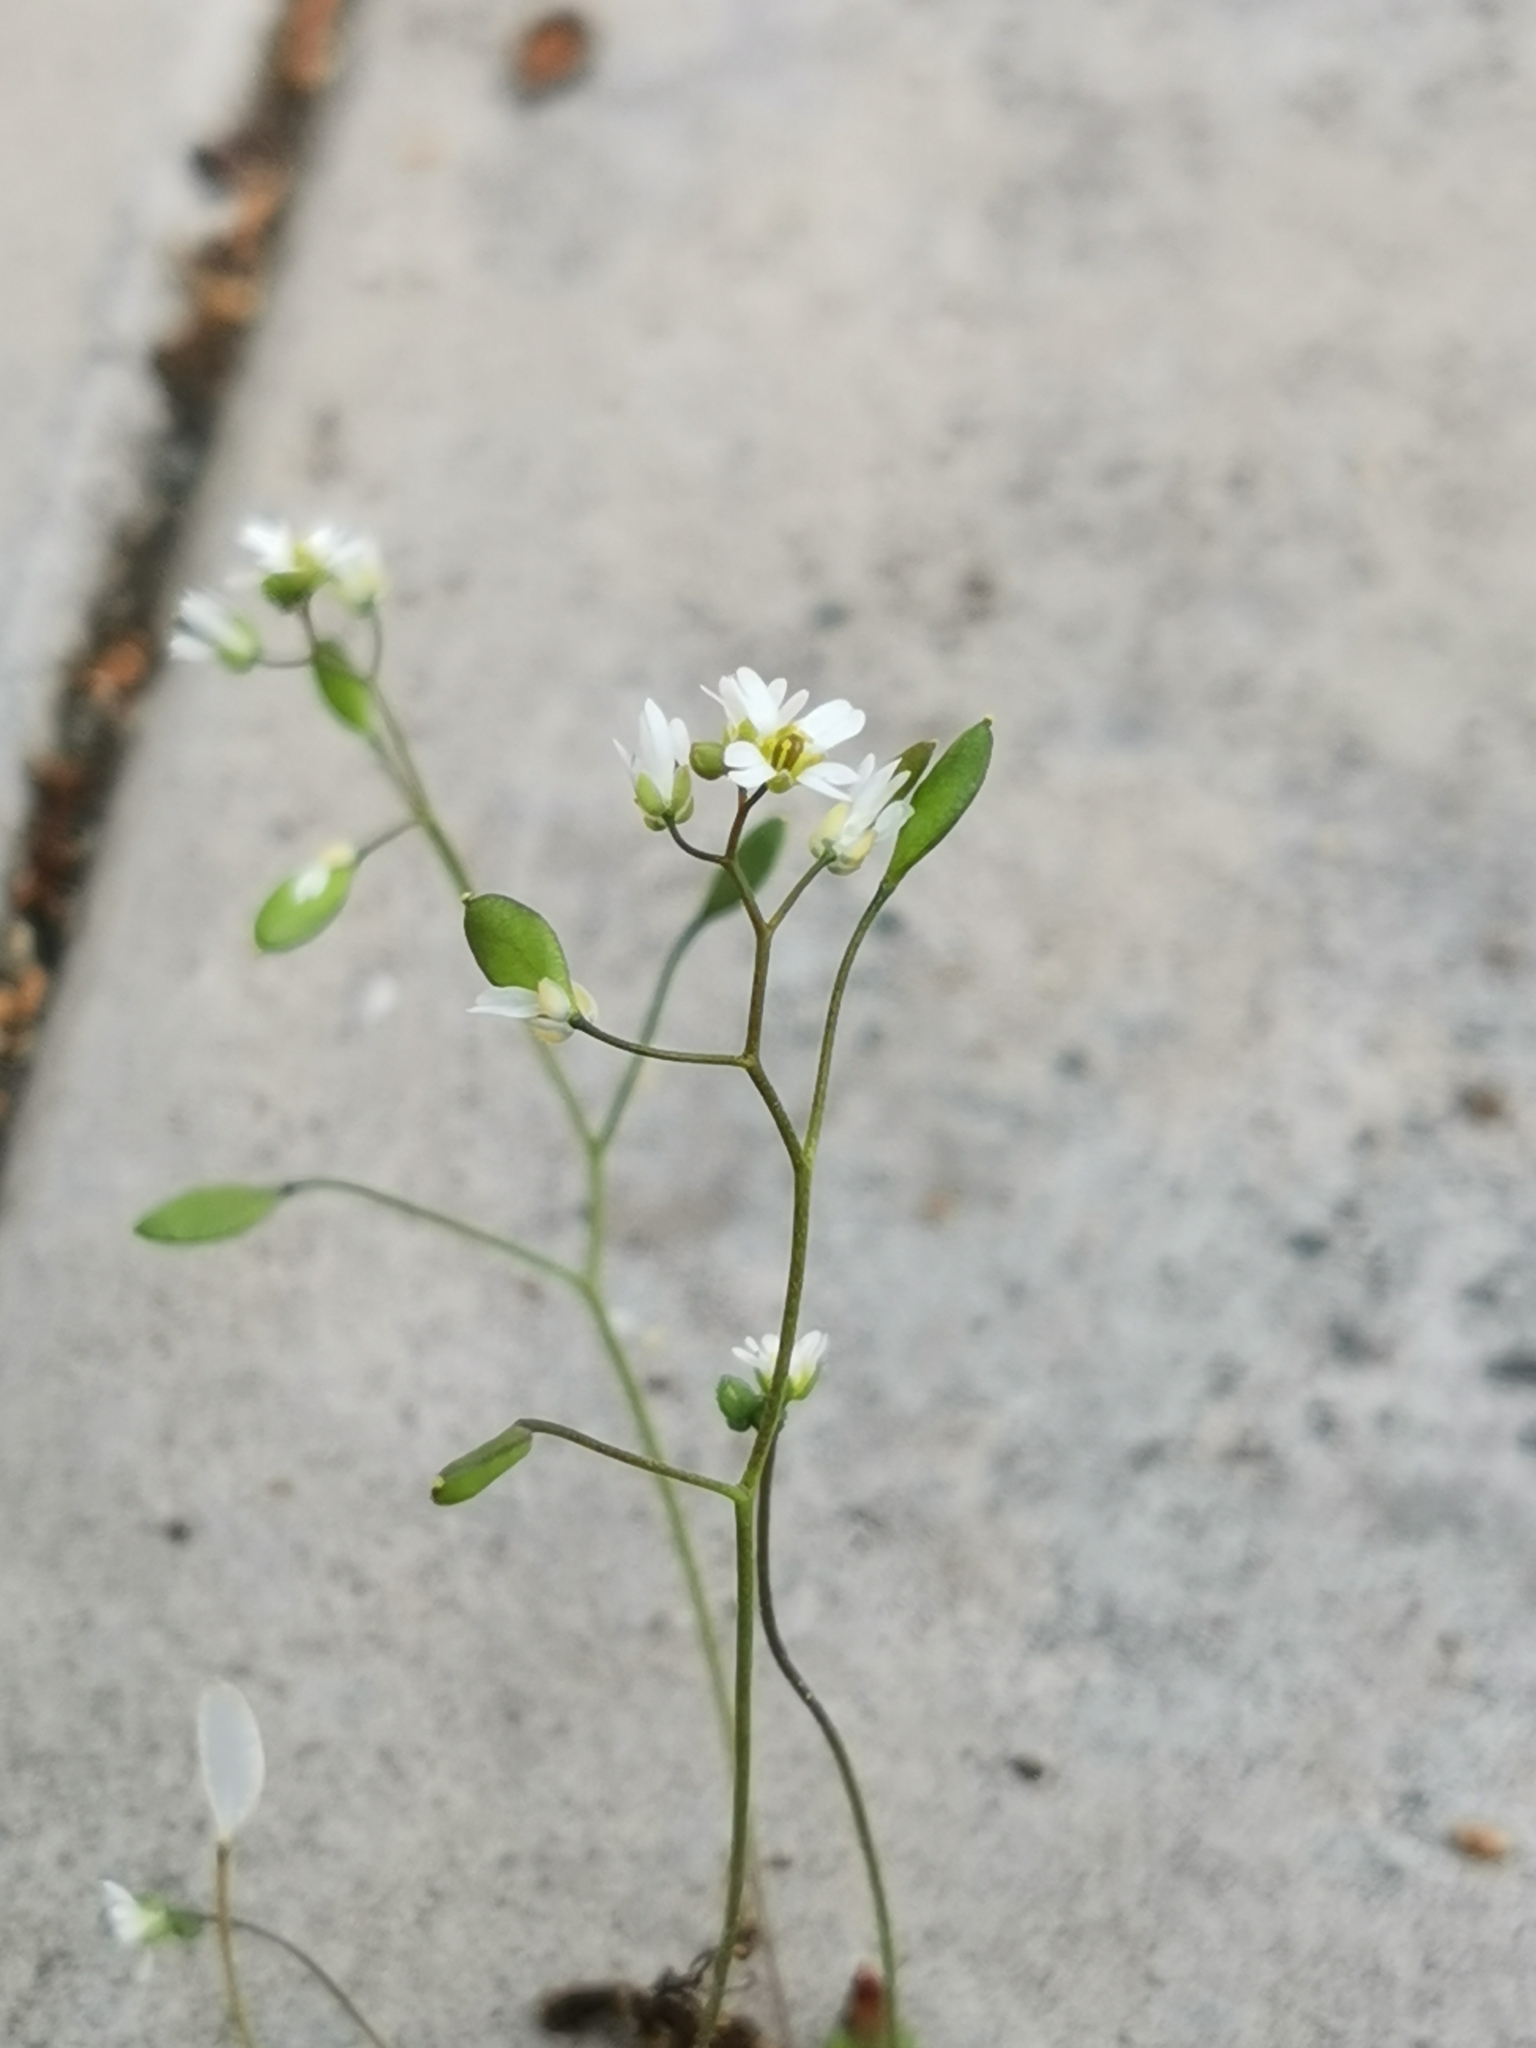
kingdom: Plantae
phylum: Tracheophyta
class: Magnoliopsida
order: Brassicales
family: Brassicaceae
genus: Draba
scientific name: Draba verna
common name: Spring draba
